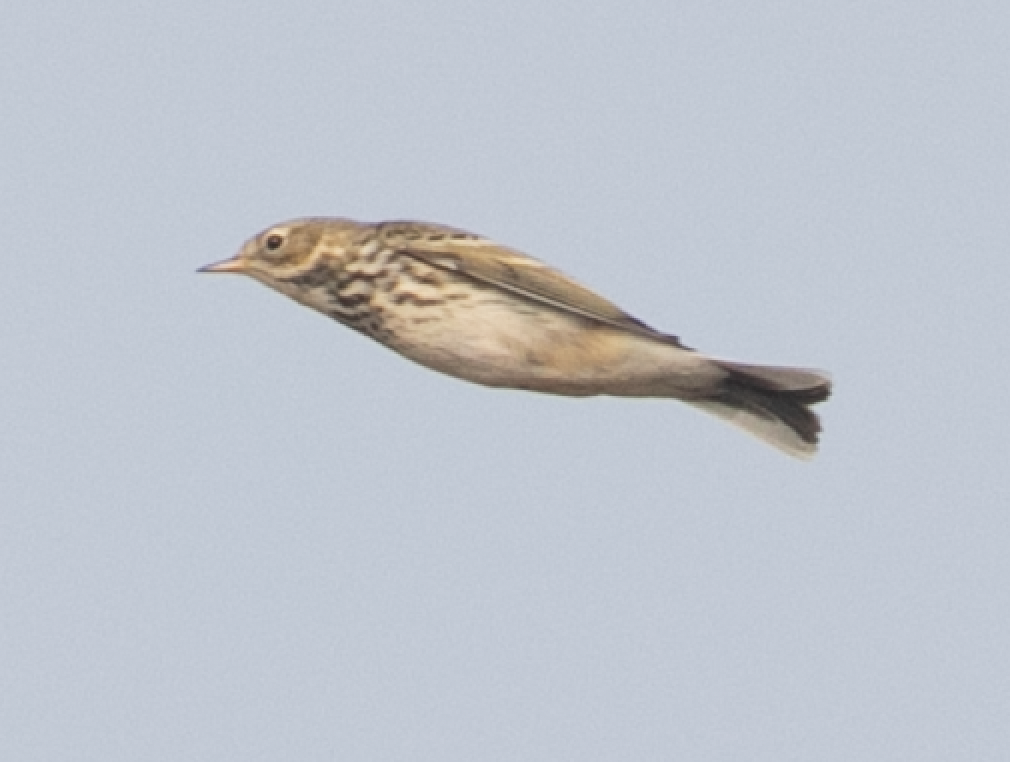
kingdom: Animalia
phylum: Chordata
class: Aves
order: Passeriformes
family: Motacillidae
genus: Anthus
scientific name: Anthus pratensis
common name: Meadow pipit
